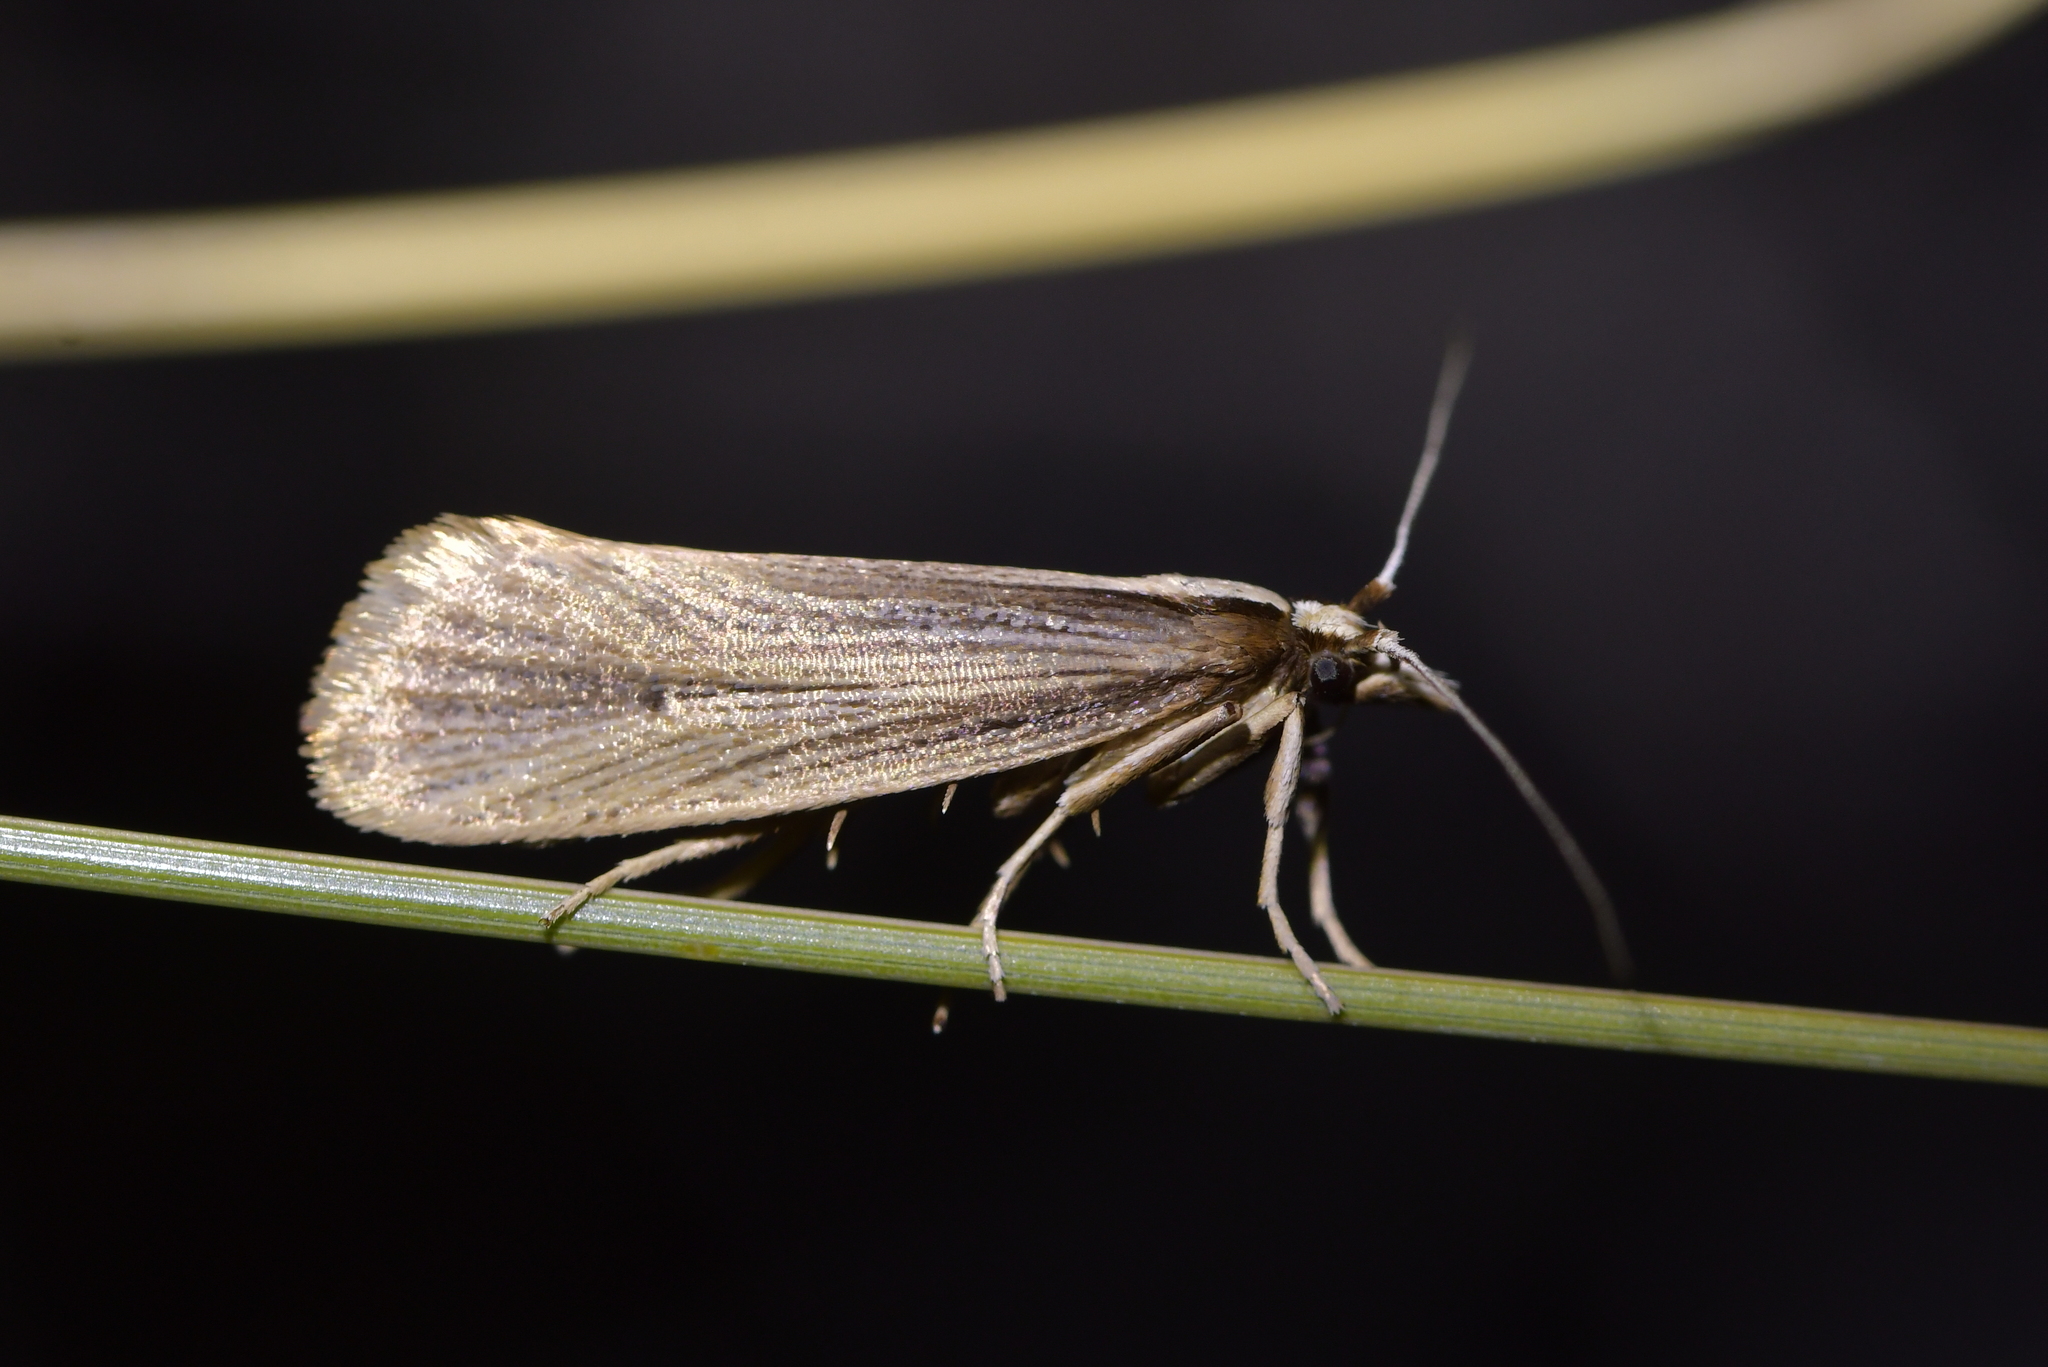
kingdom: Animalia
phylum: Arthropoda
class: Insecta
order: Lepidoptera
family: Plutellidae
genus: Proditrix
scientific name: Proditrix megalynta
